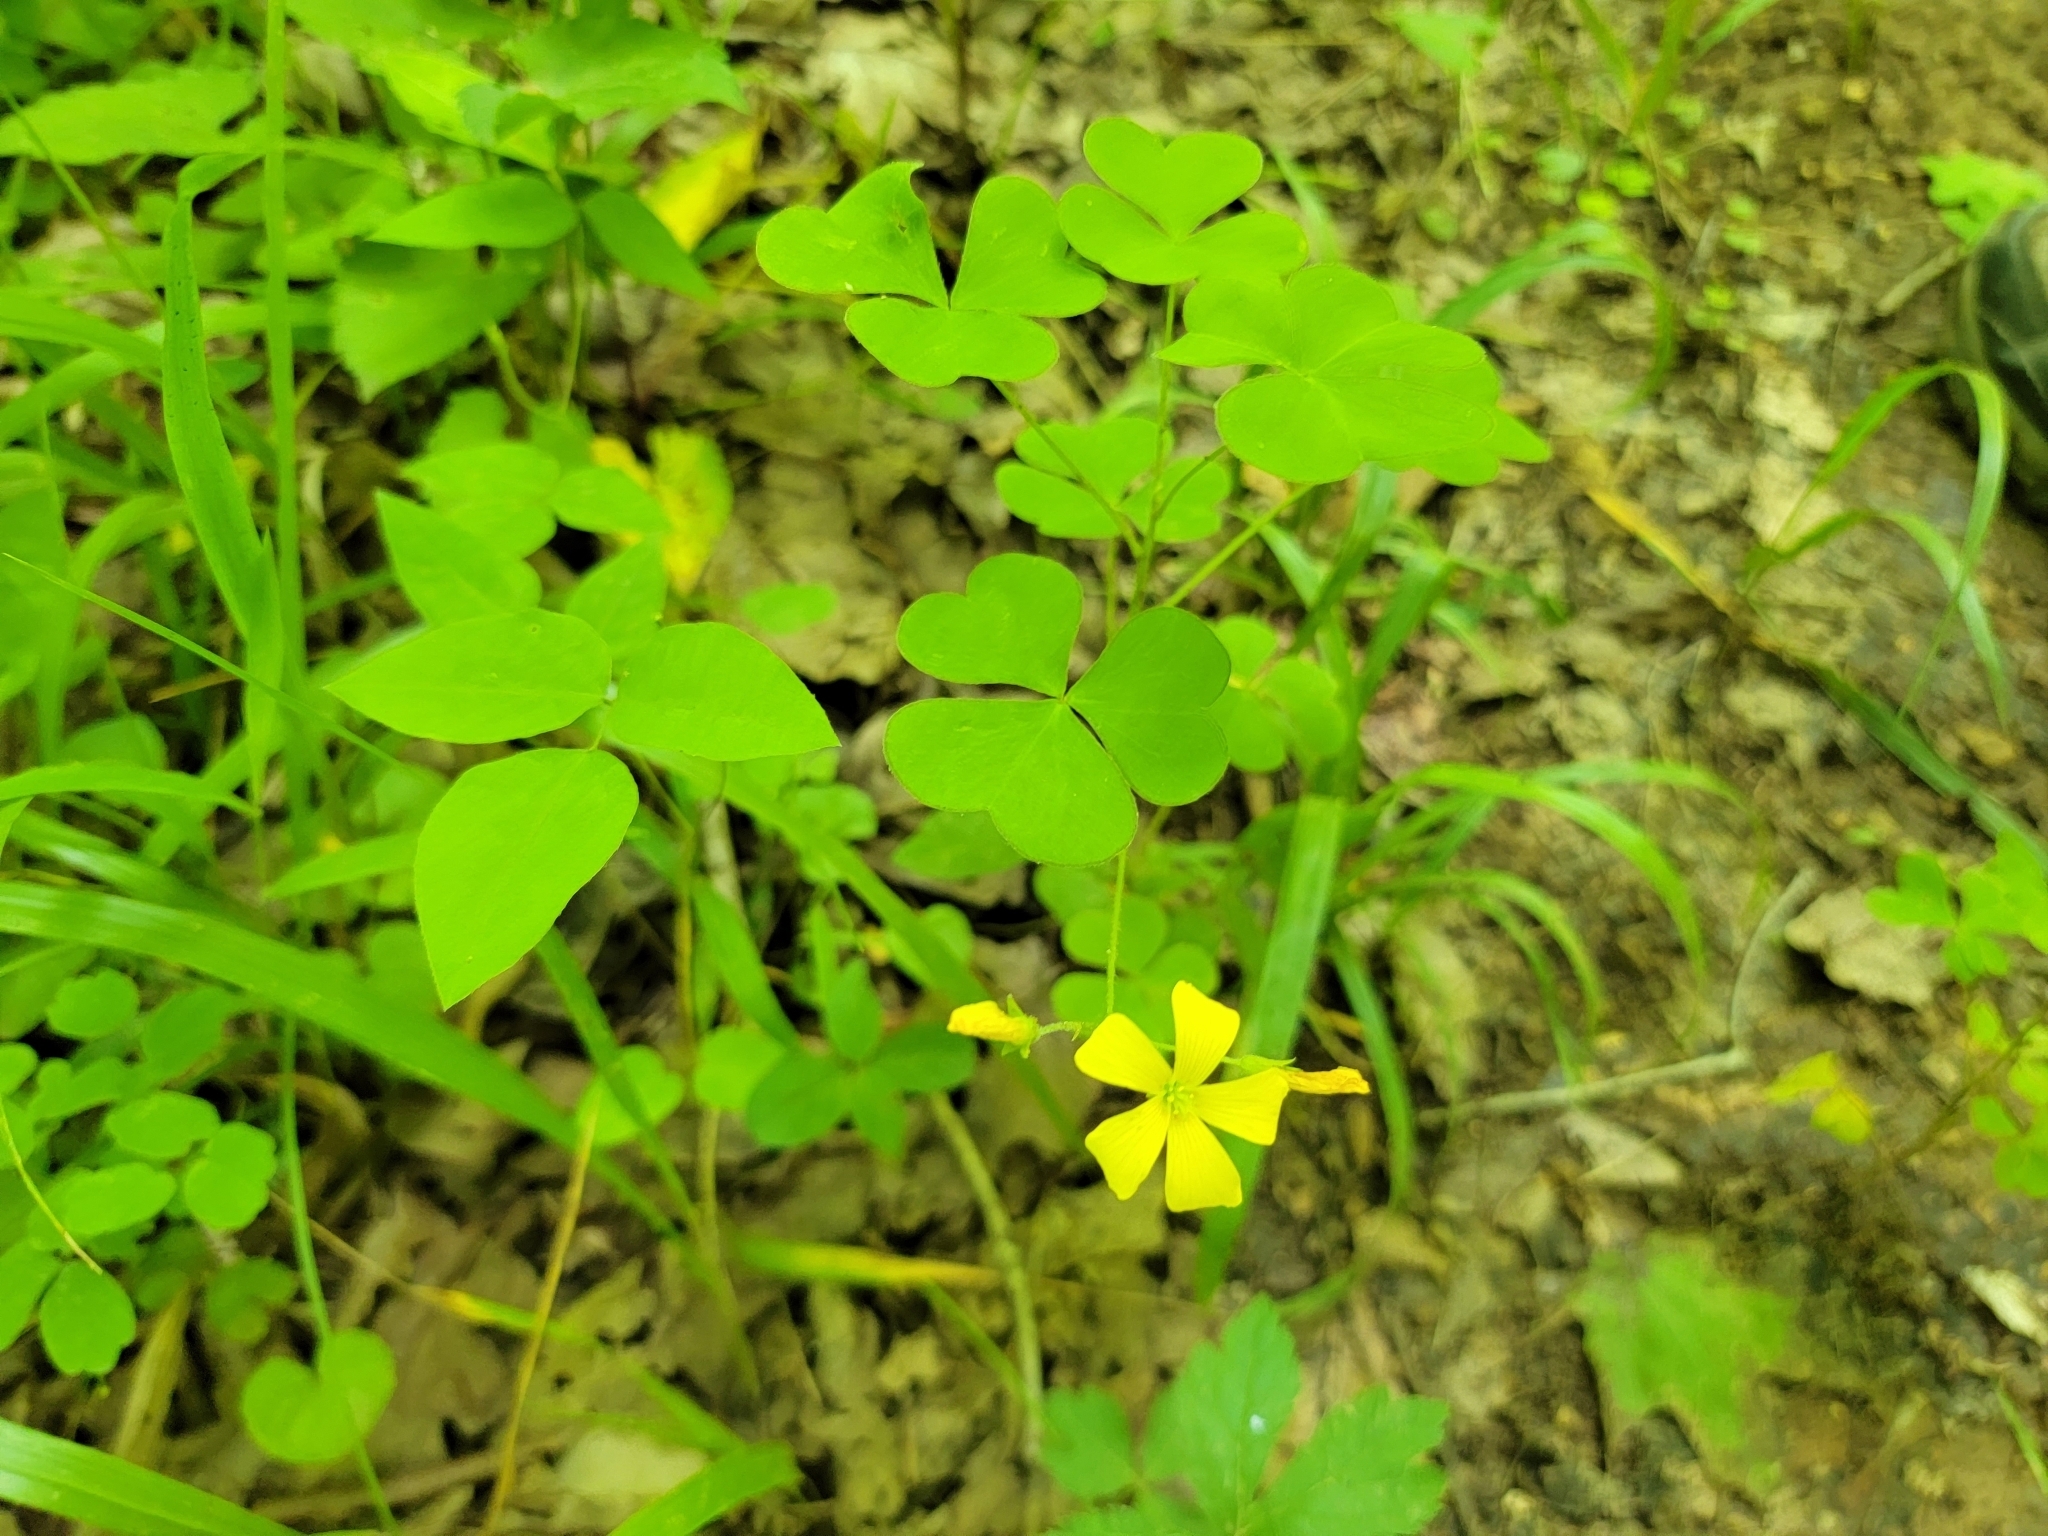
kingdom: Plantae
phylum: Tracheophyta
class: Magnoliopsida
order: Oxalidales
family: Oxalidaceae
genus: Oxalis
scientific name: Oxalis grandis
